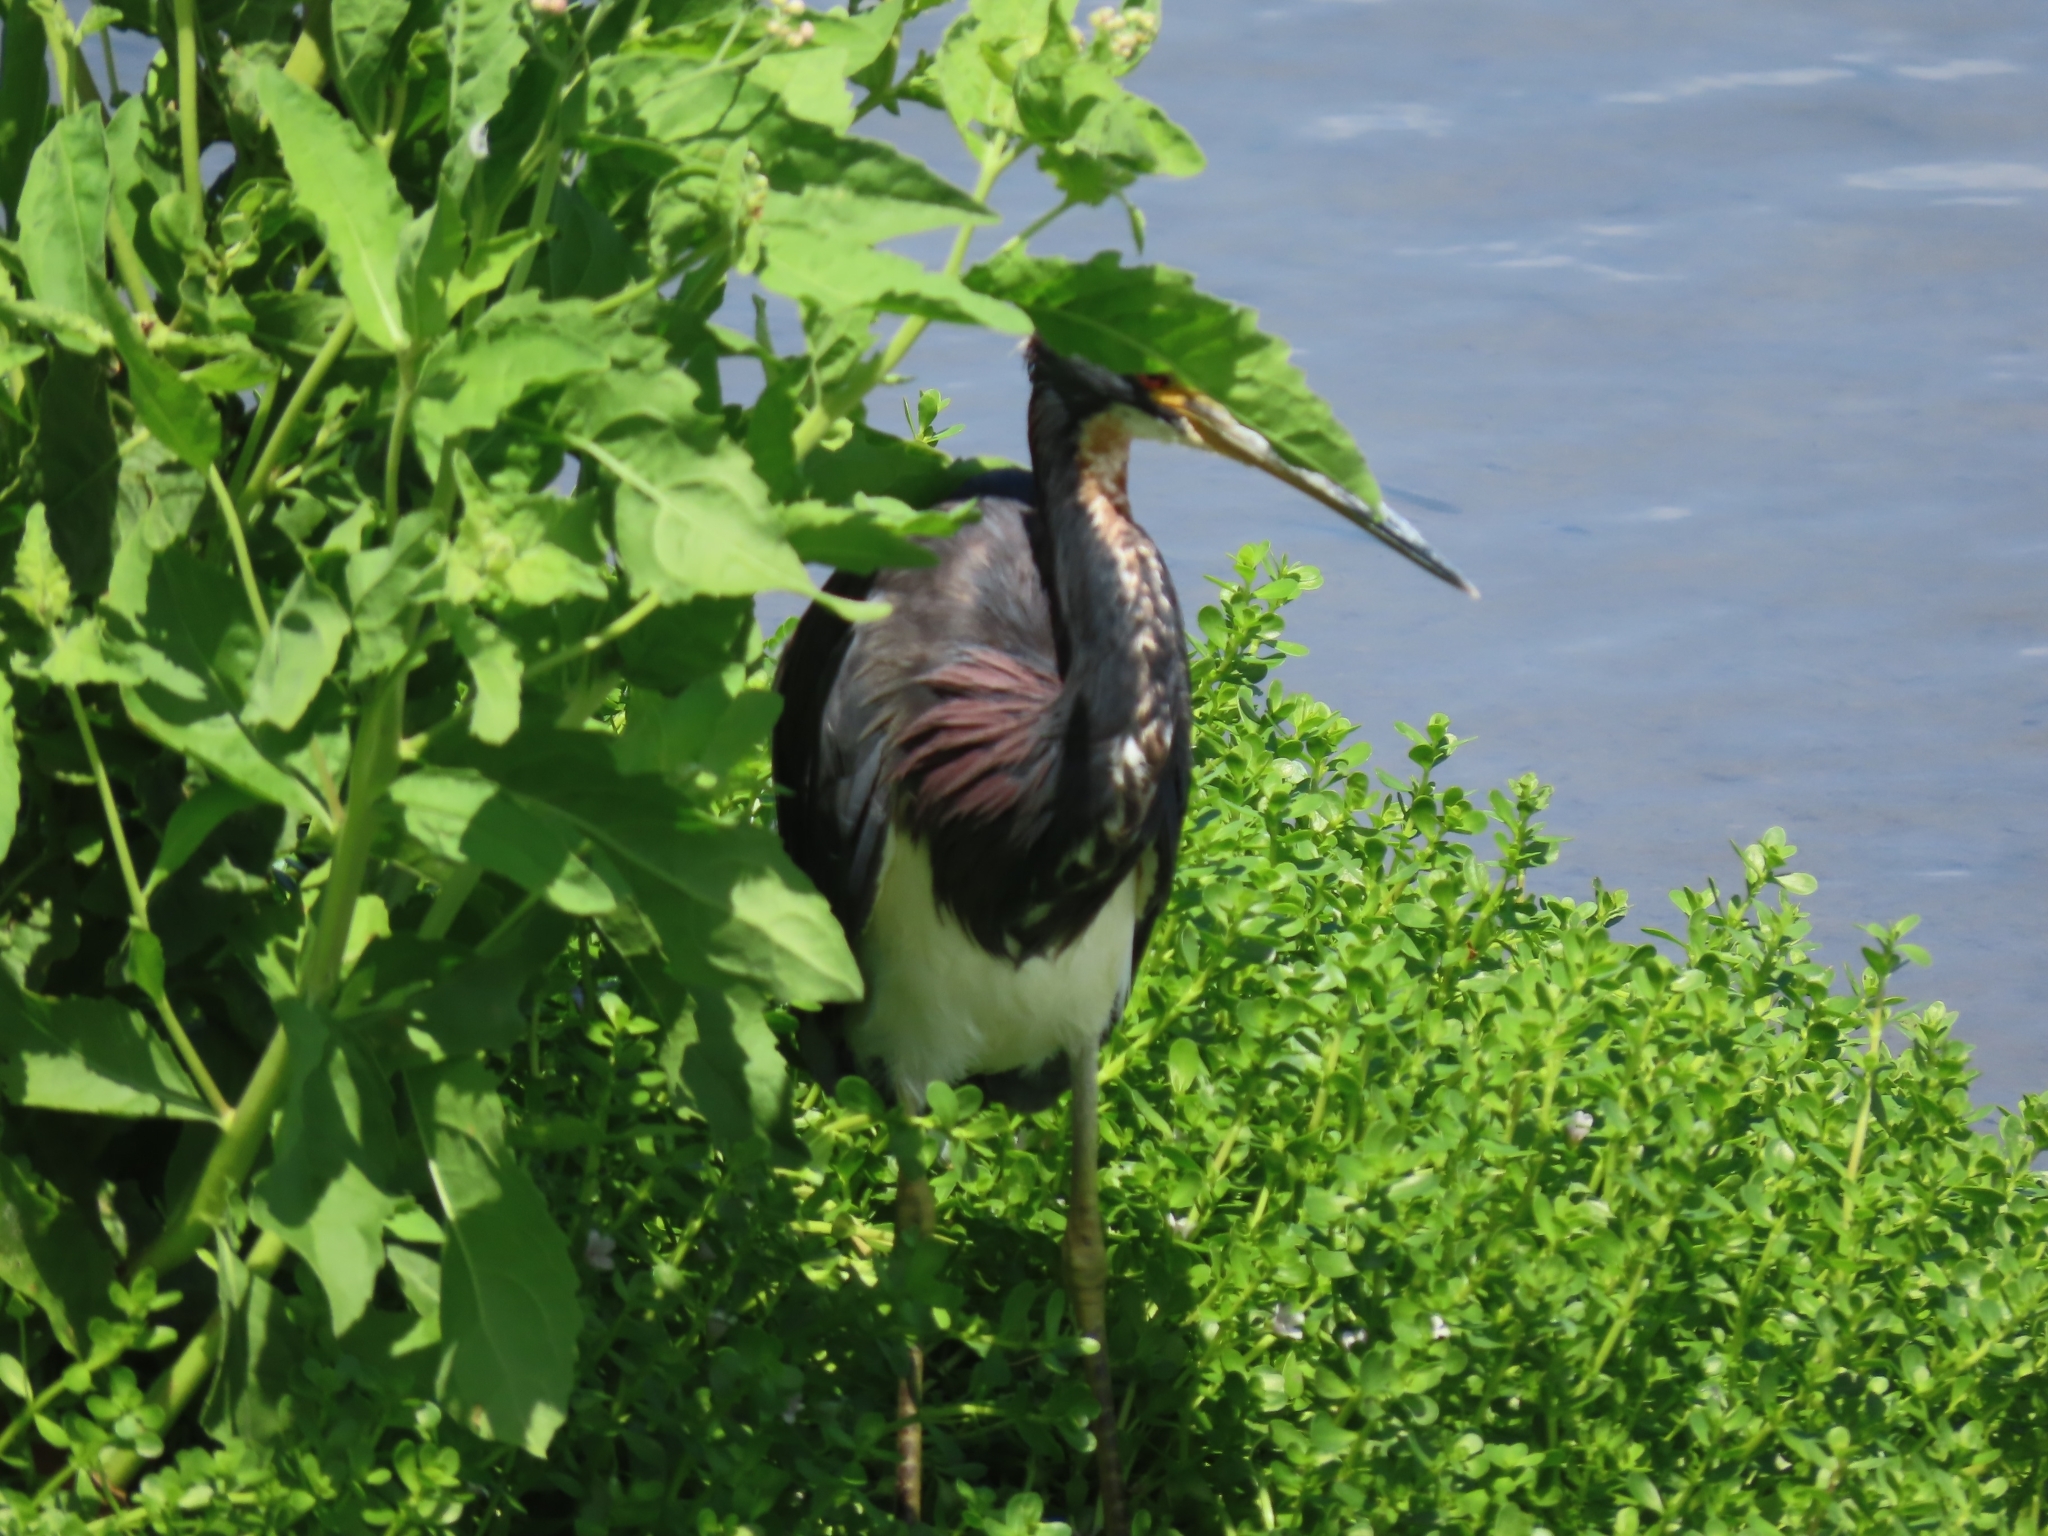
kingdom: Animalia
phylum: Chordata
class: Aves
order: Pelecaniformes
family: Ardeidae
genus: Egretta
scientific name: Egretta tricolor
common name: Tricolored heron
